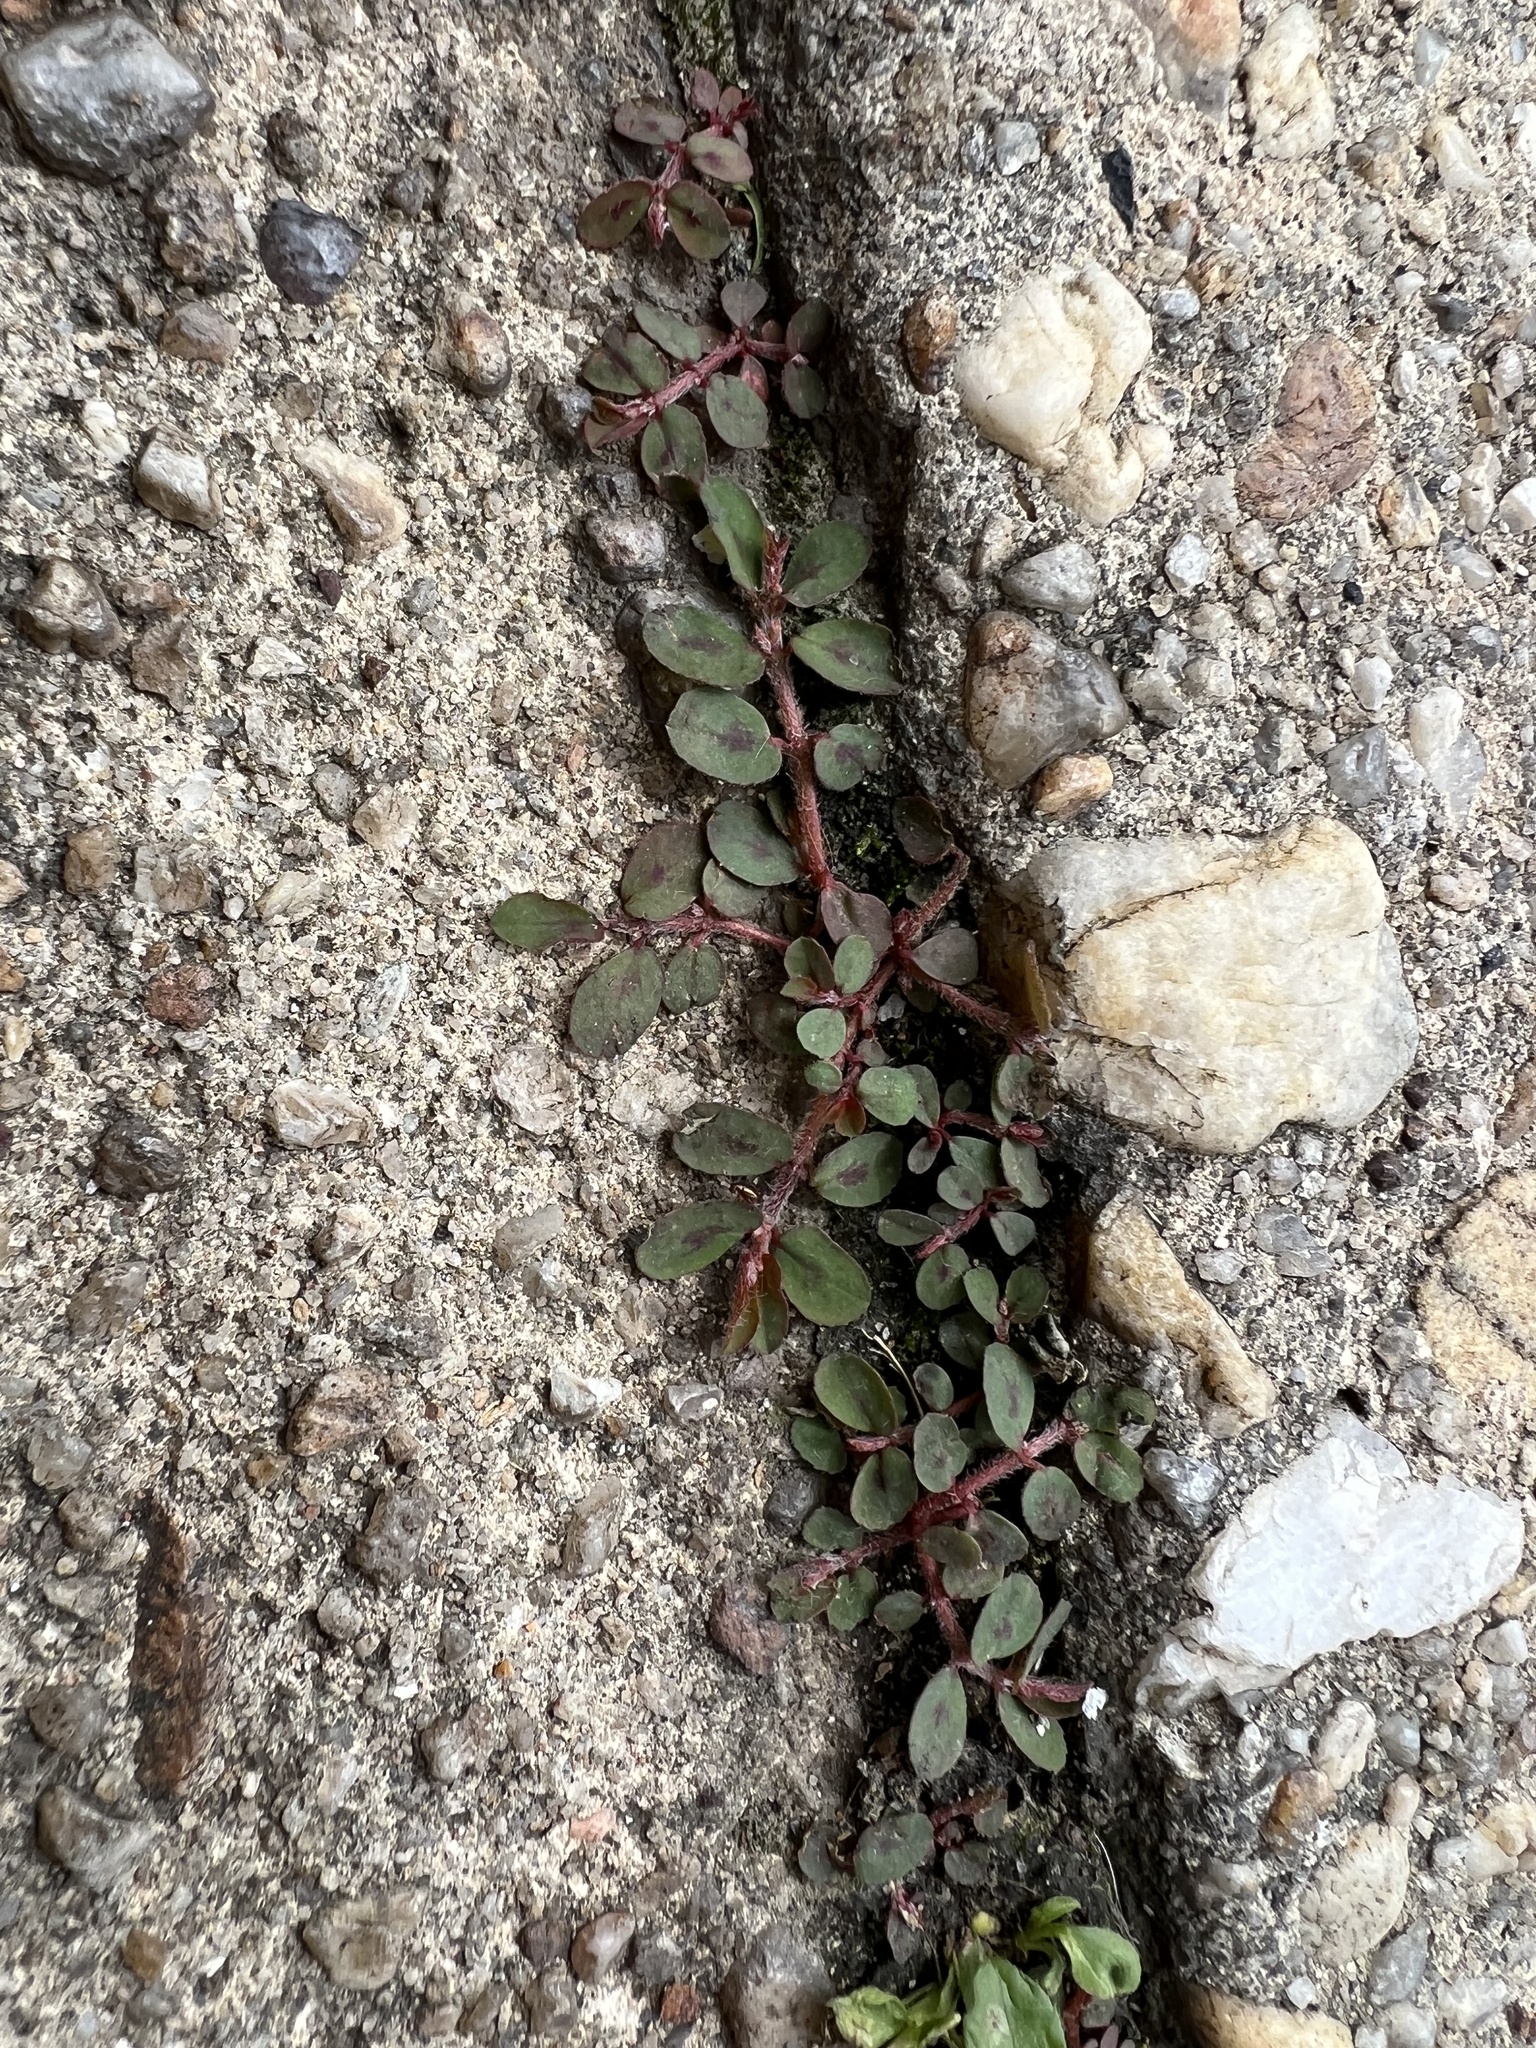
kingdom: Plantae
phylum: Tracheophyta
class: Magnoliopsida
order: Malpighiales
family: Euphorbiaceae
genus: Euphorbia
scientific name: Euphorbia maculata
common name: Spotted spurge
